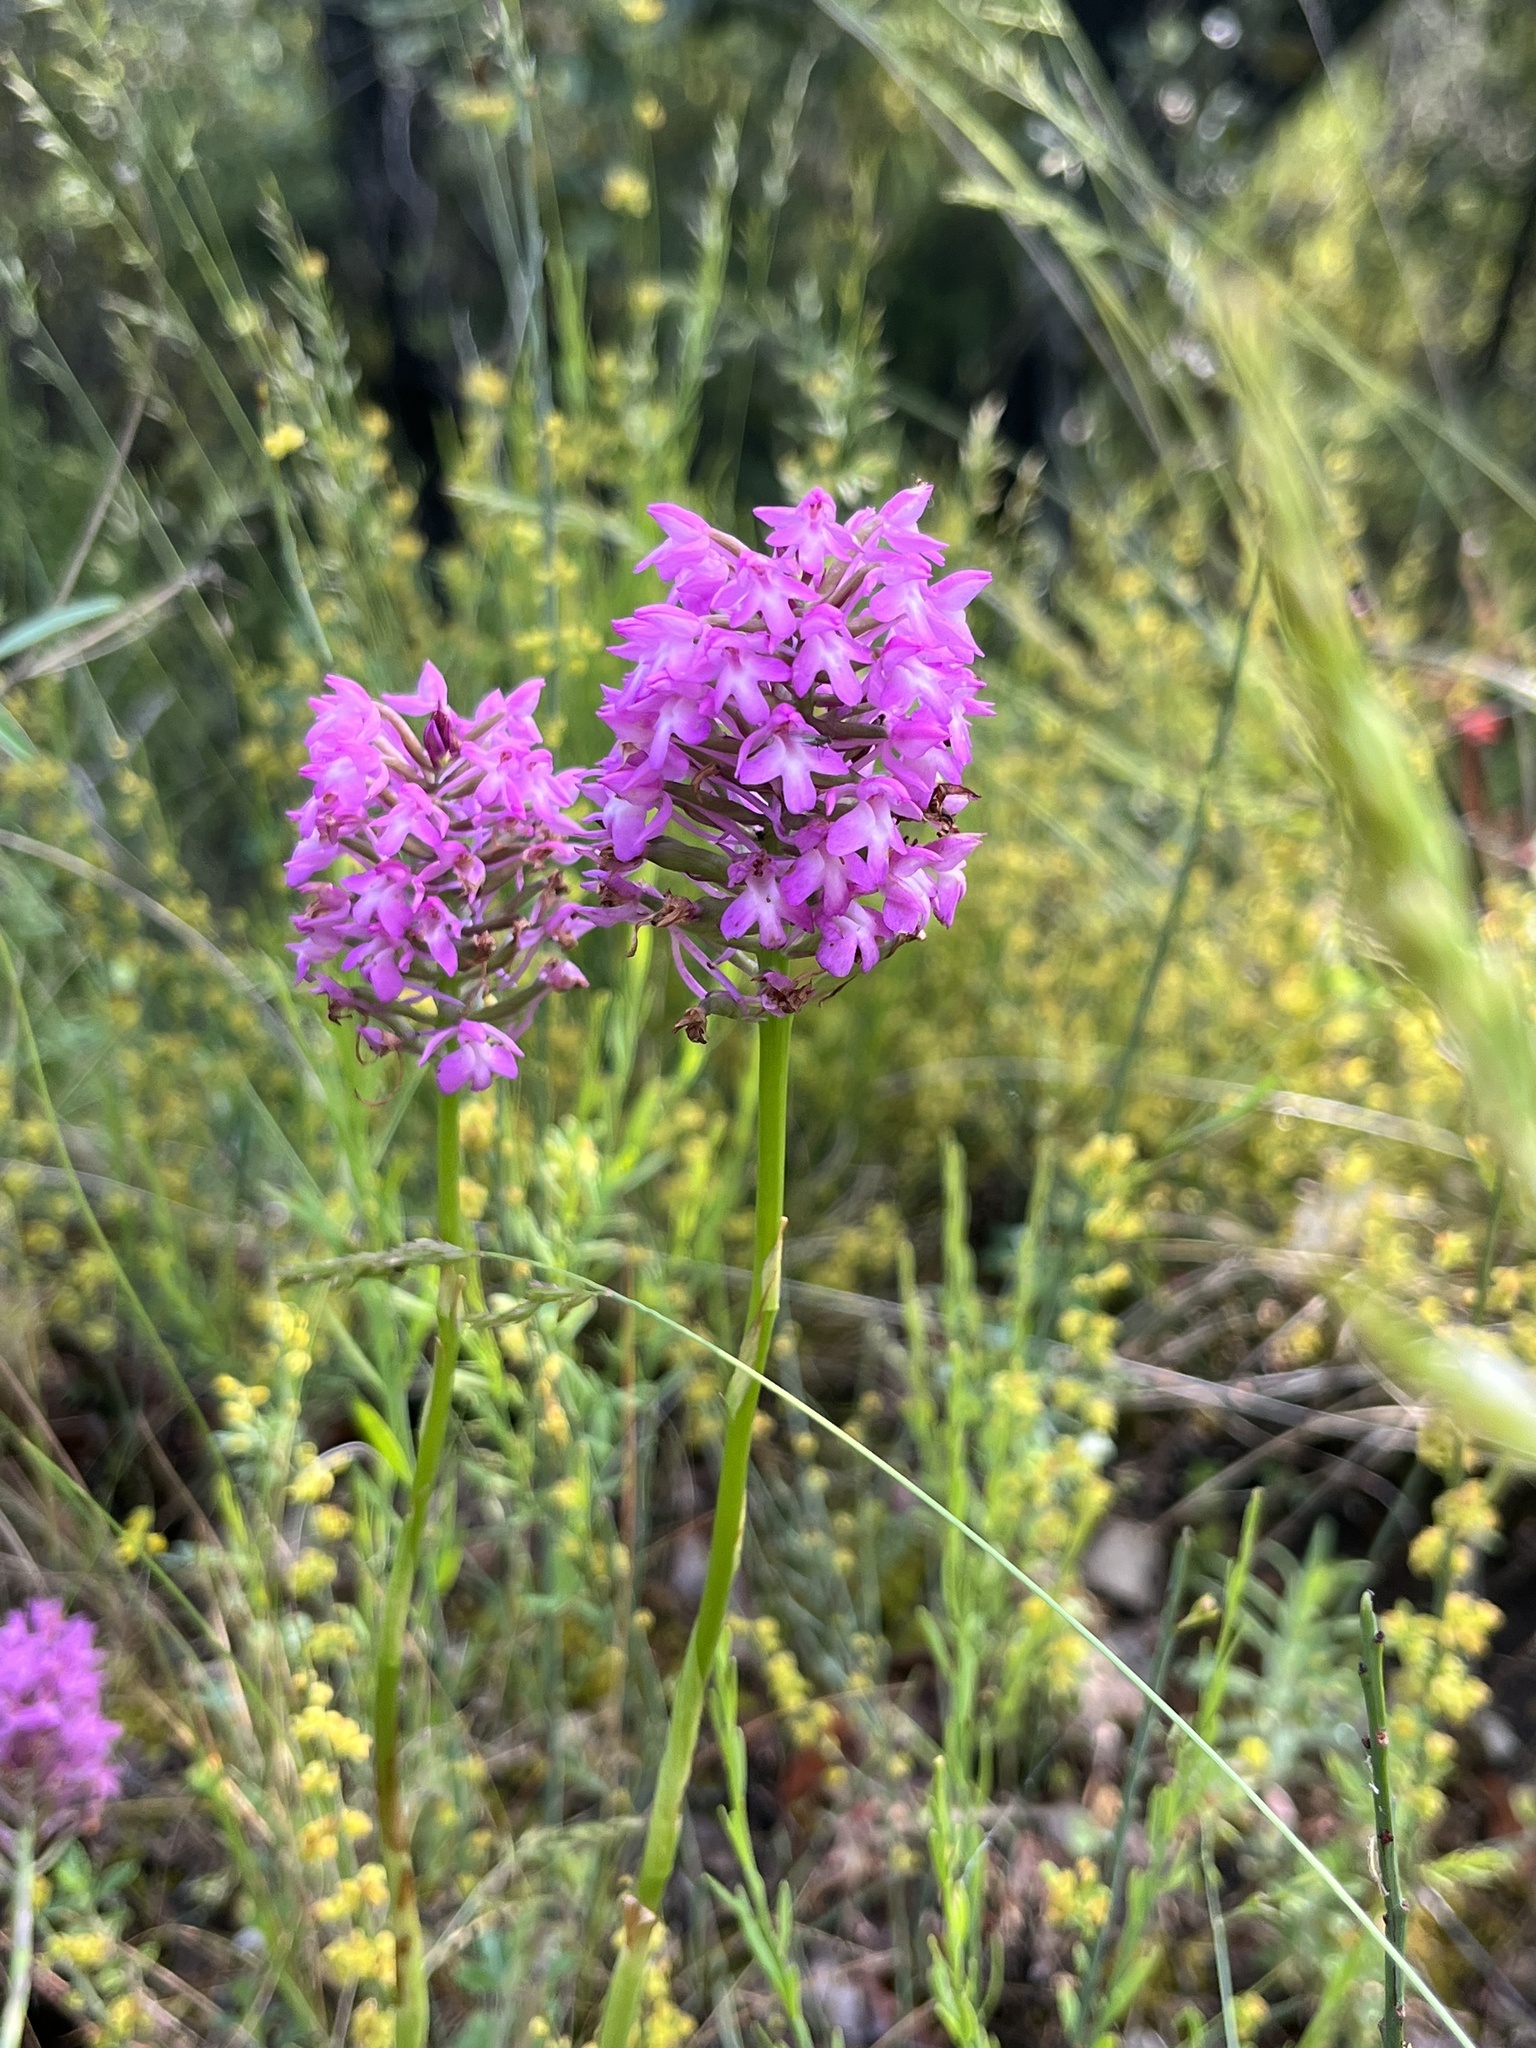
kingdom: Plantae
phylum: Tracheophyta
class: Liliopsida
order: Asparagales
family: Orchidaceae
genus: Anacamptis
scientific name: Anacamptis pyramidalis
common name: Pyramidal orchid
